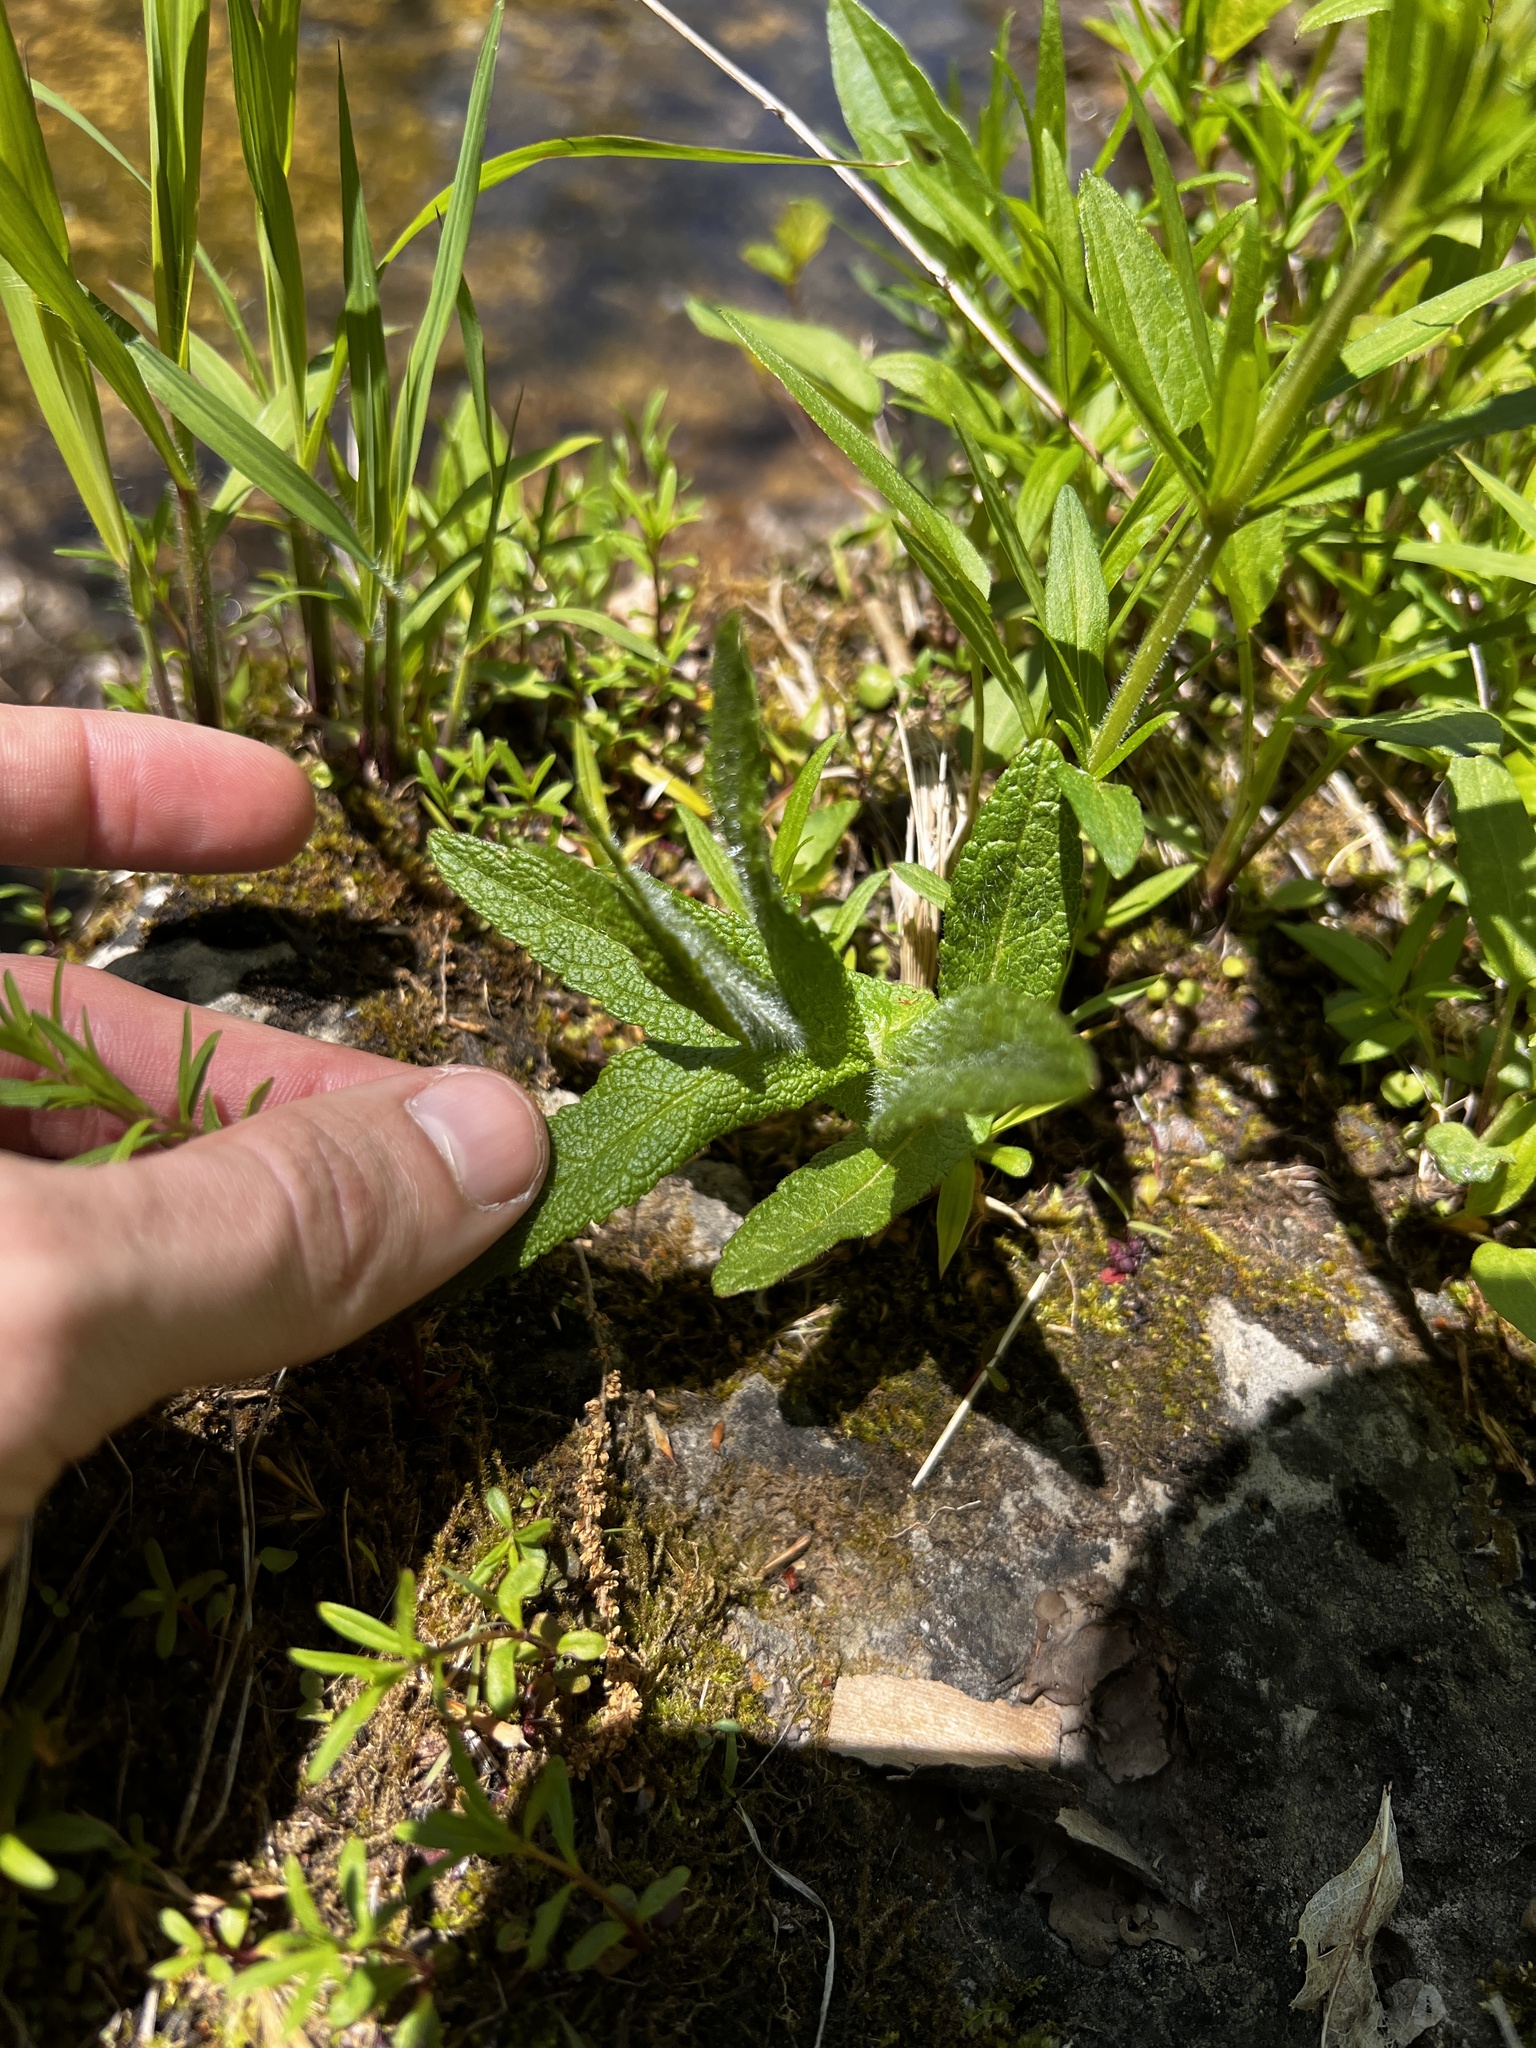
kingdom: Plantae
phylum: Tracheophyta
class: Magnoliopsida
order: Asterales
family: Asteraceae
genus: Eupatorium
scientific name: Eupatorium perfoliatum
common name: Boneset
